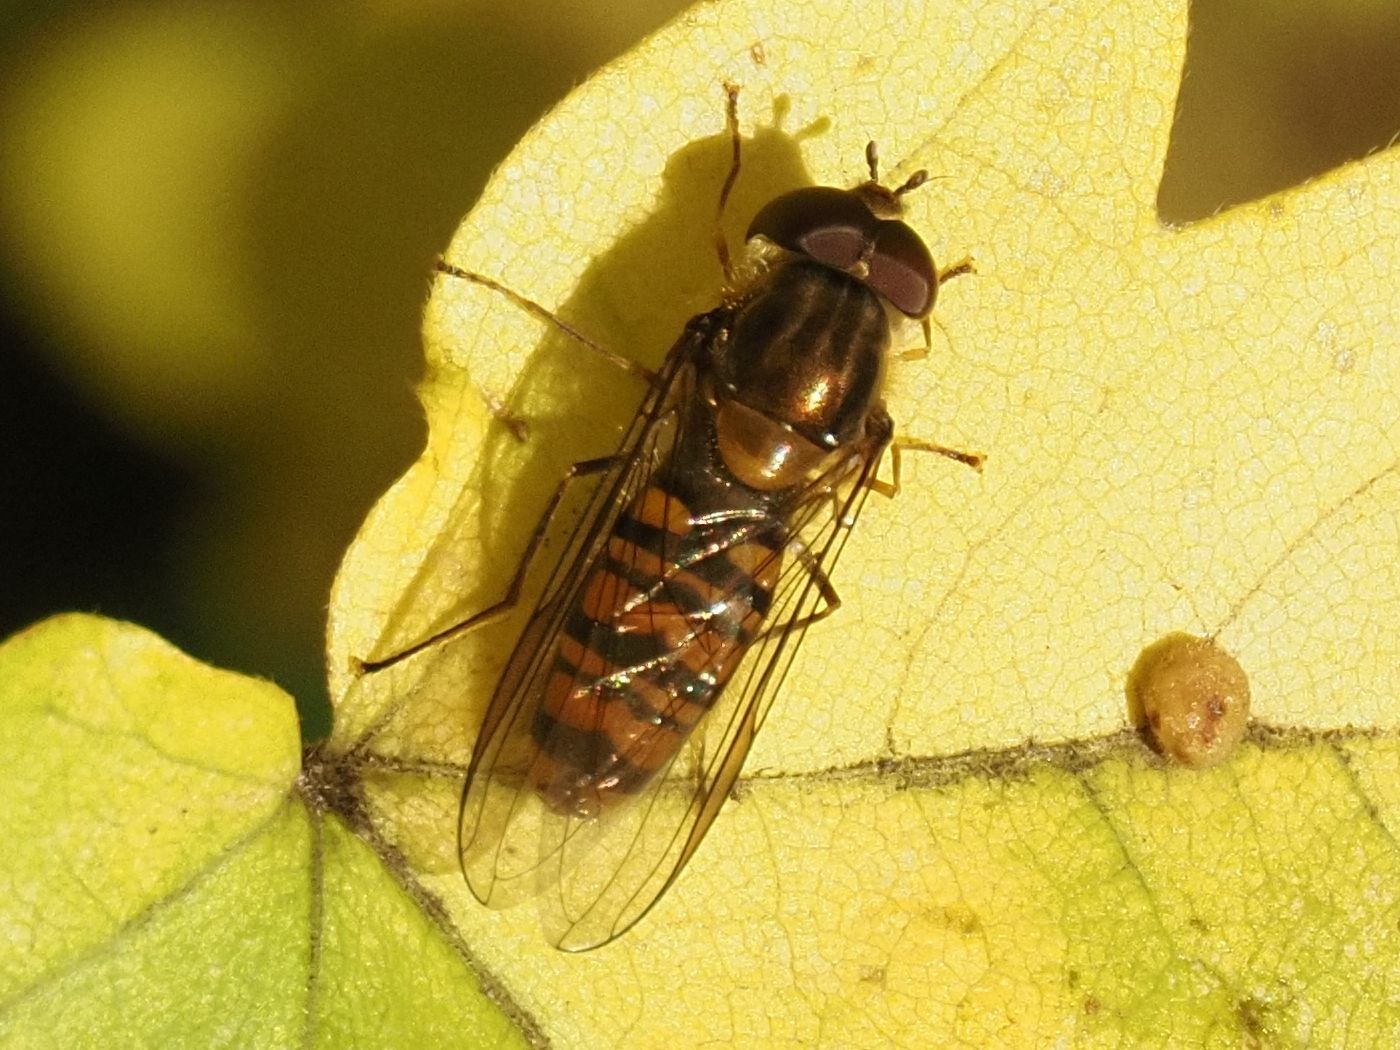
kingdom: Animalia
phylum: Arthropoda
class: Insecta
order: Diptera
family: Syrphidae
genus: Episyrphus
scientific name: Episyrphus balteatus
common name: Marmalade hoverfly
